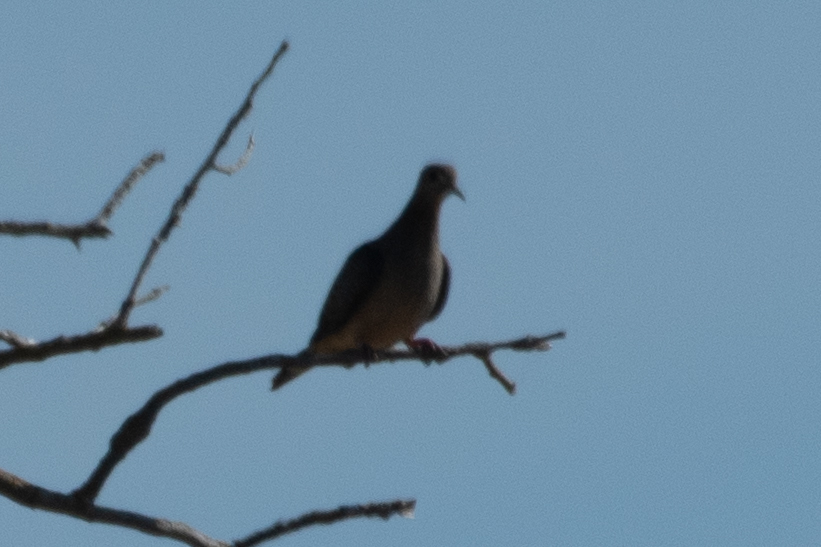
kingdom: Animalia
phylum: Chordata
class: Aves
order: Columbiformes
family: Columbidae
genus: Zenaida
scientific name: Zenaida macroura
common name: Mourning dove
